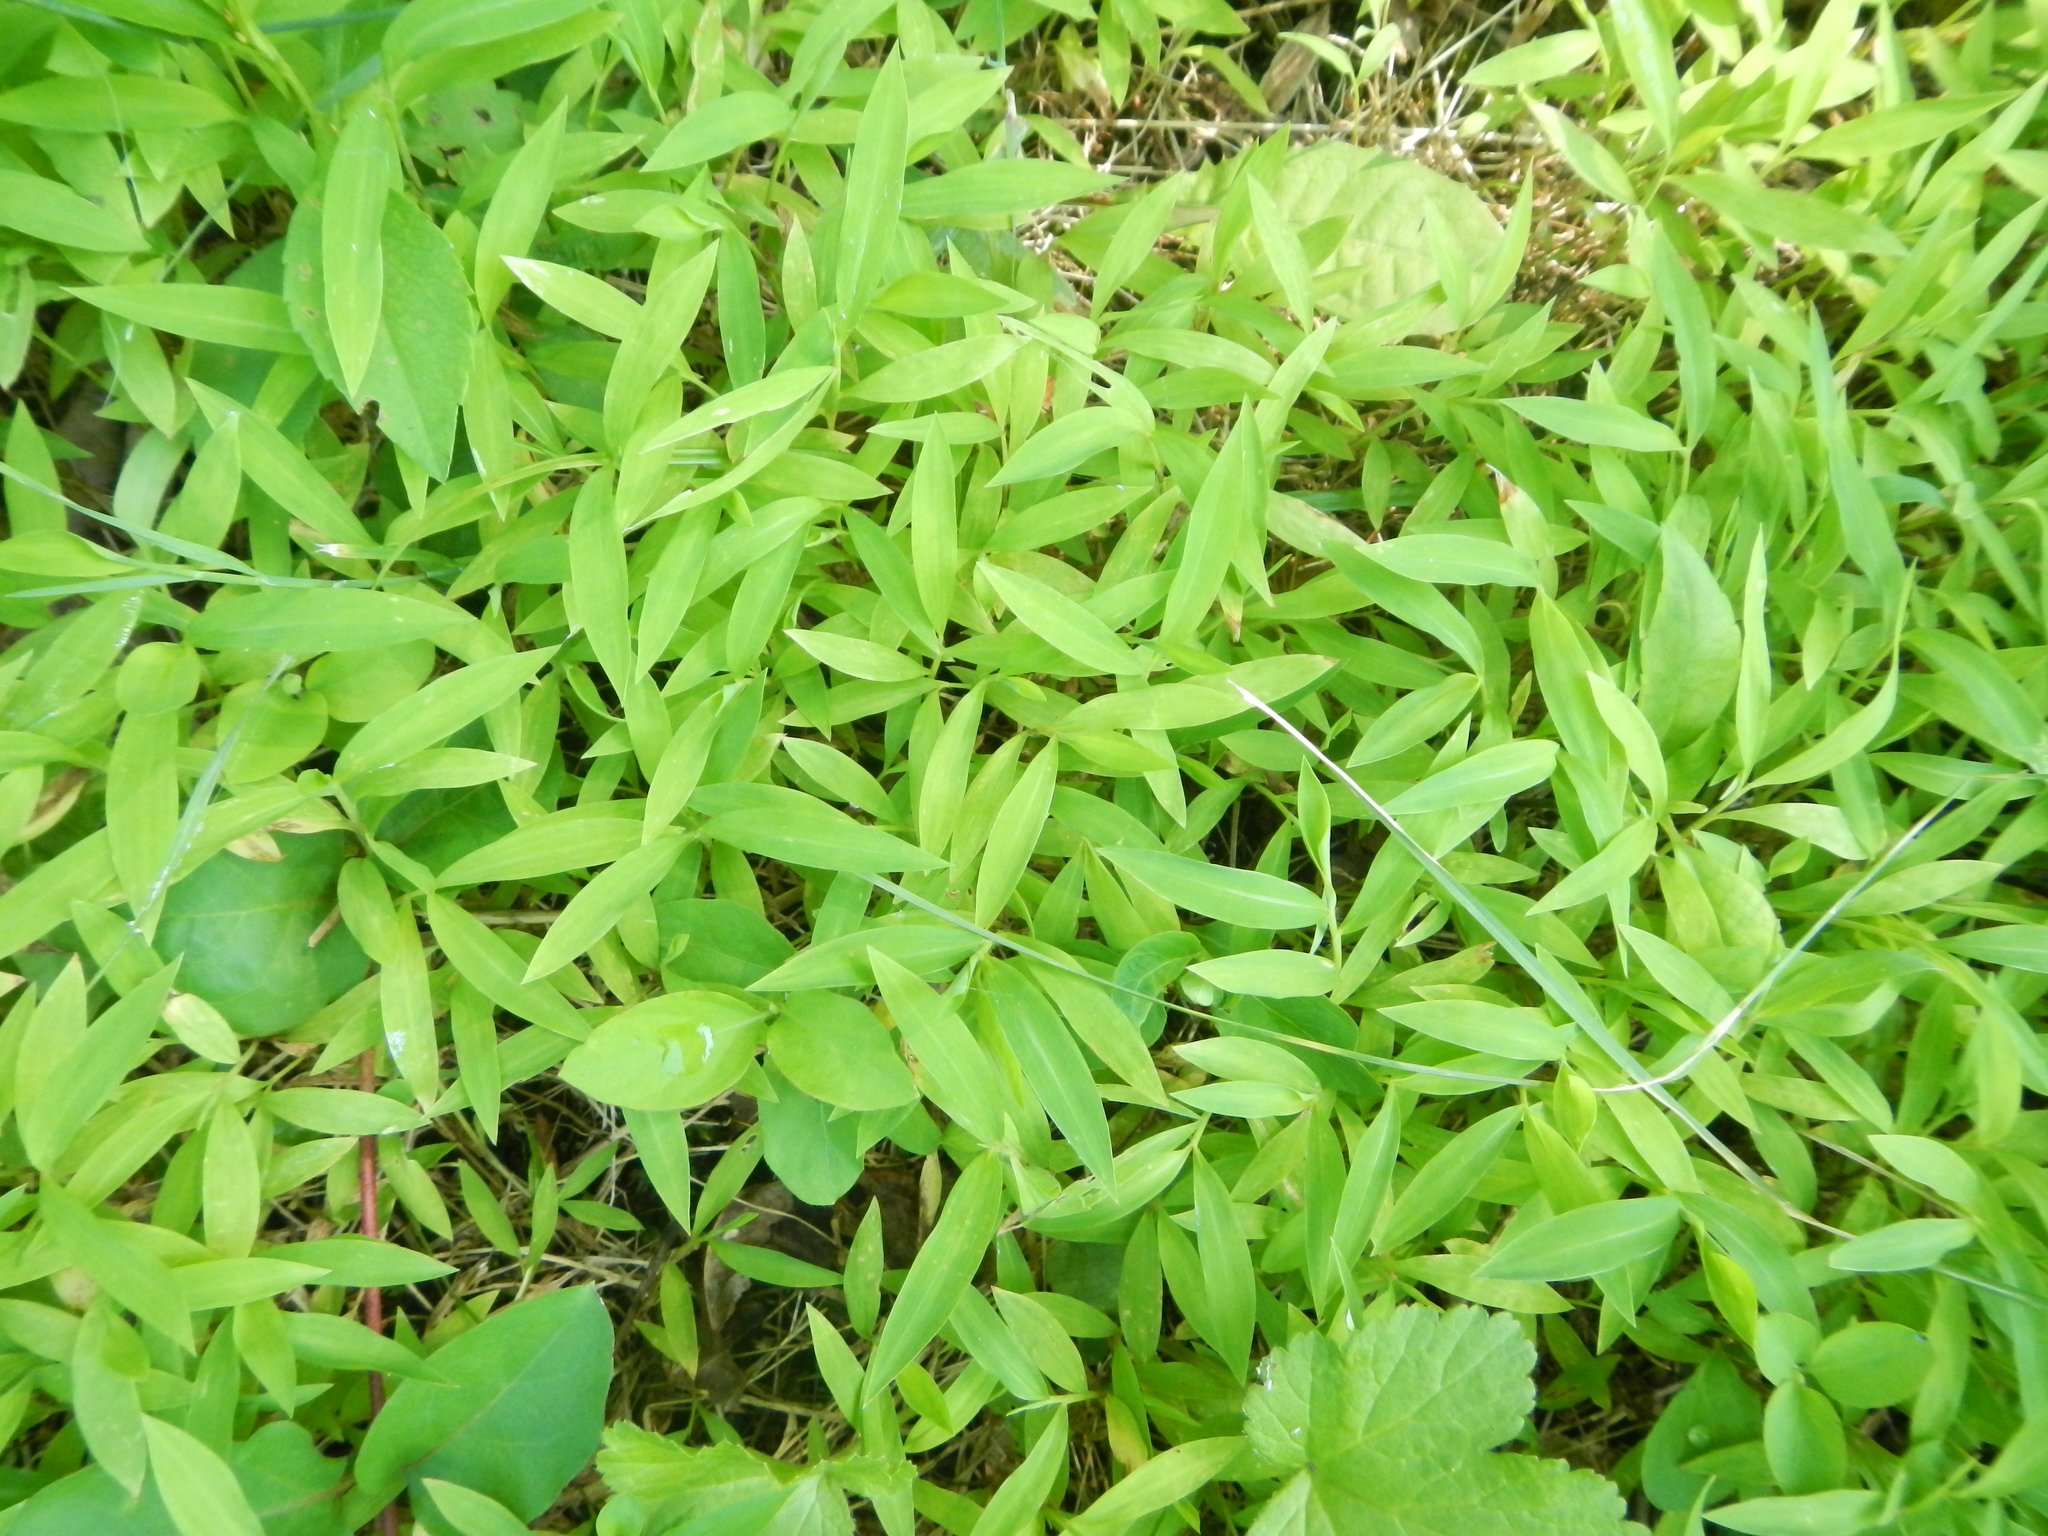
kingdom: Plantae
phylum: Tracheophyta
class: Liliopsida
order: Poales
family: Poaceae
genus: Microstegium
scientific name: Microstegium vimineum
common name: Japanese stiltgrass
